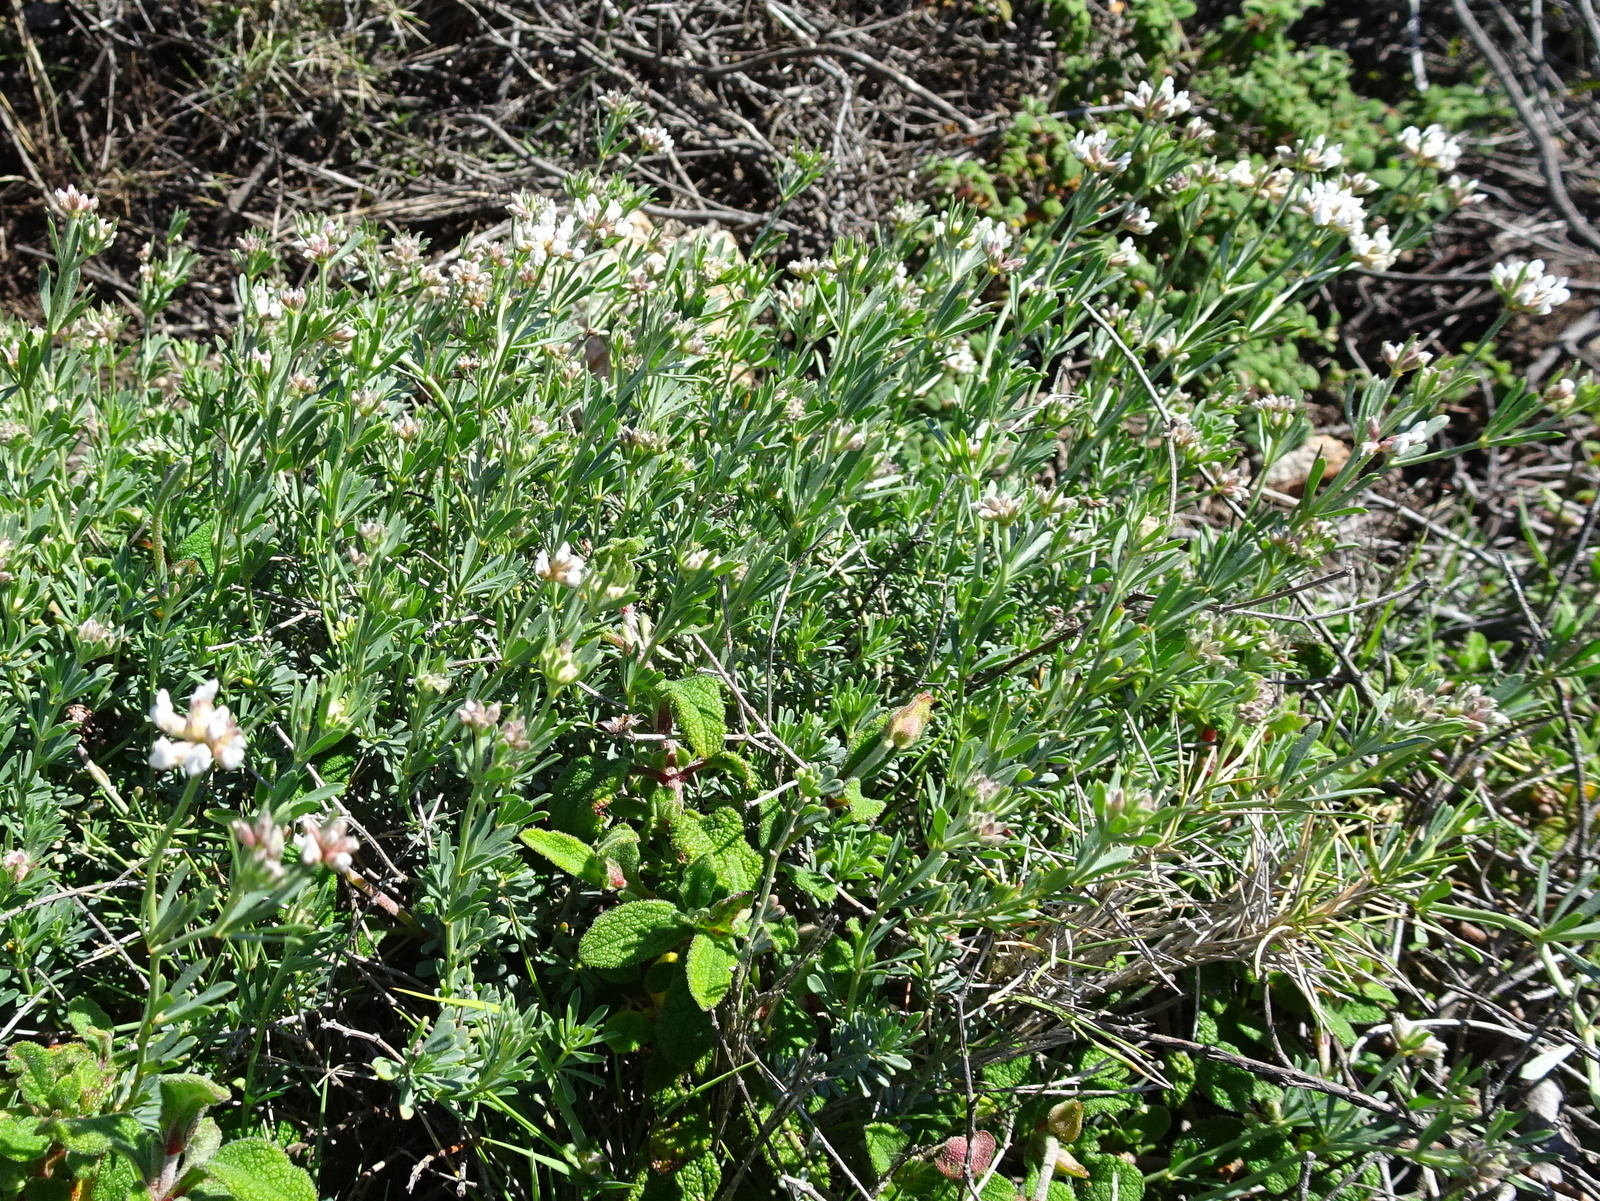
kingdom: Plantae
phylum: Tracheophyta
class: Magnoliopsida
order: Fabales
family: Fabaceae
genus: Lotus
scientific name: Lotus dorycnium
